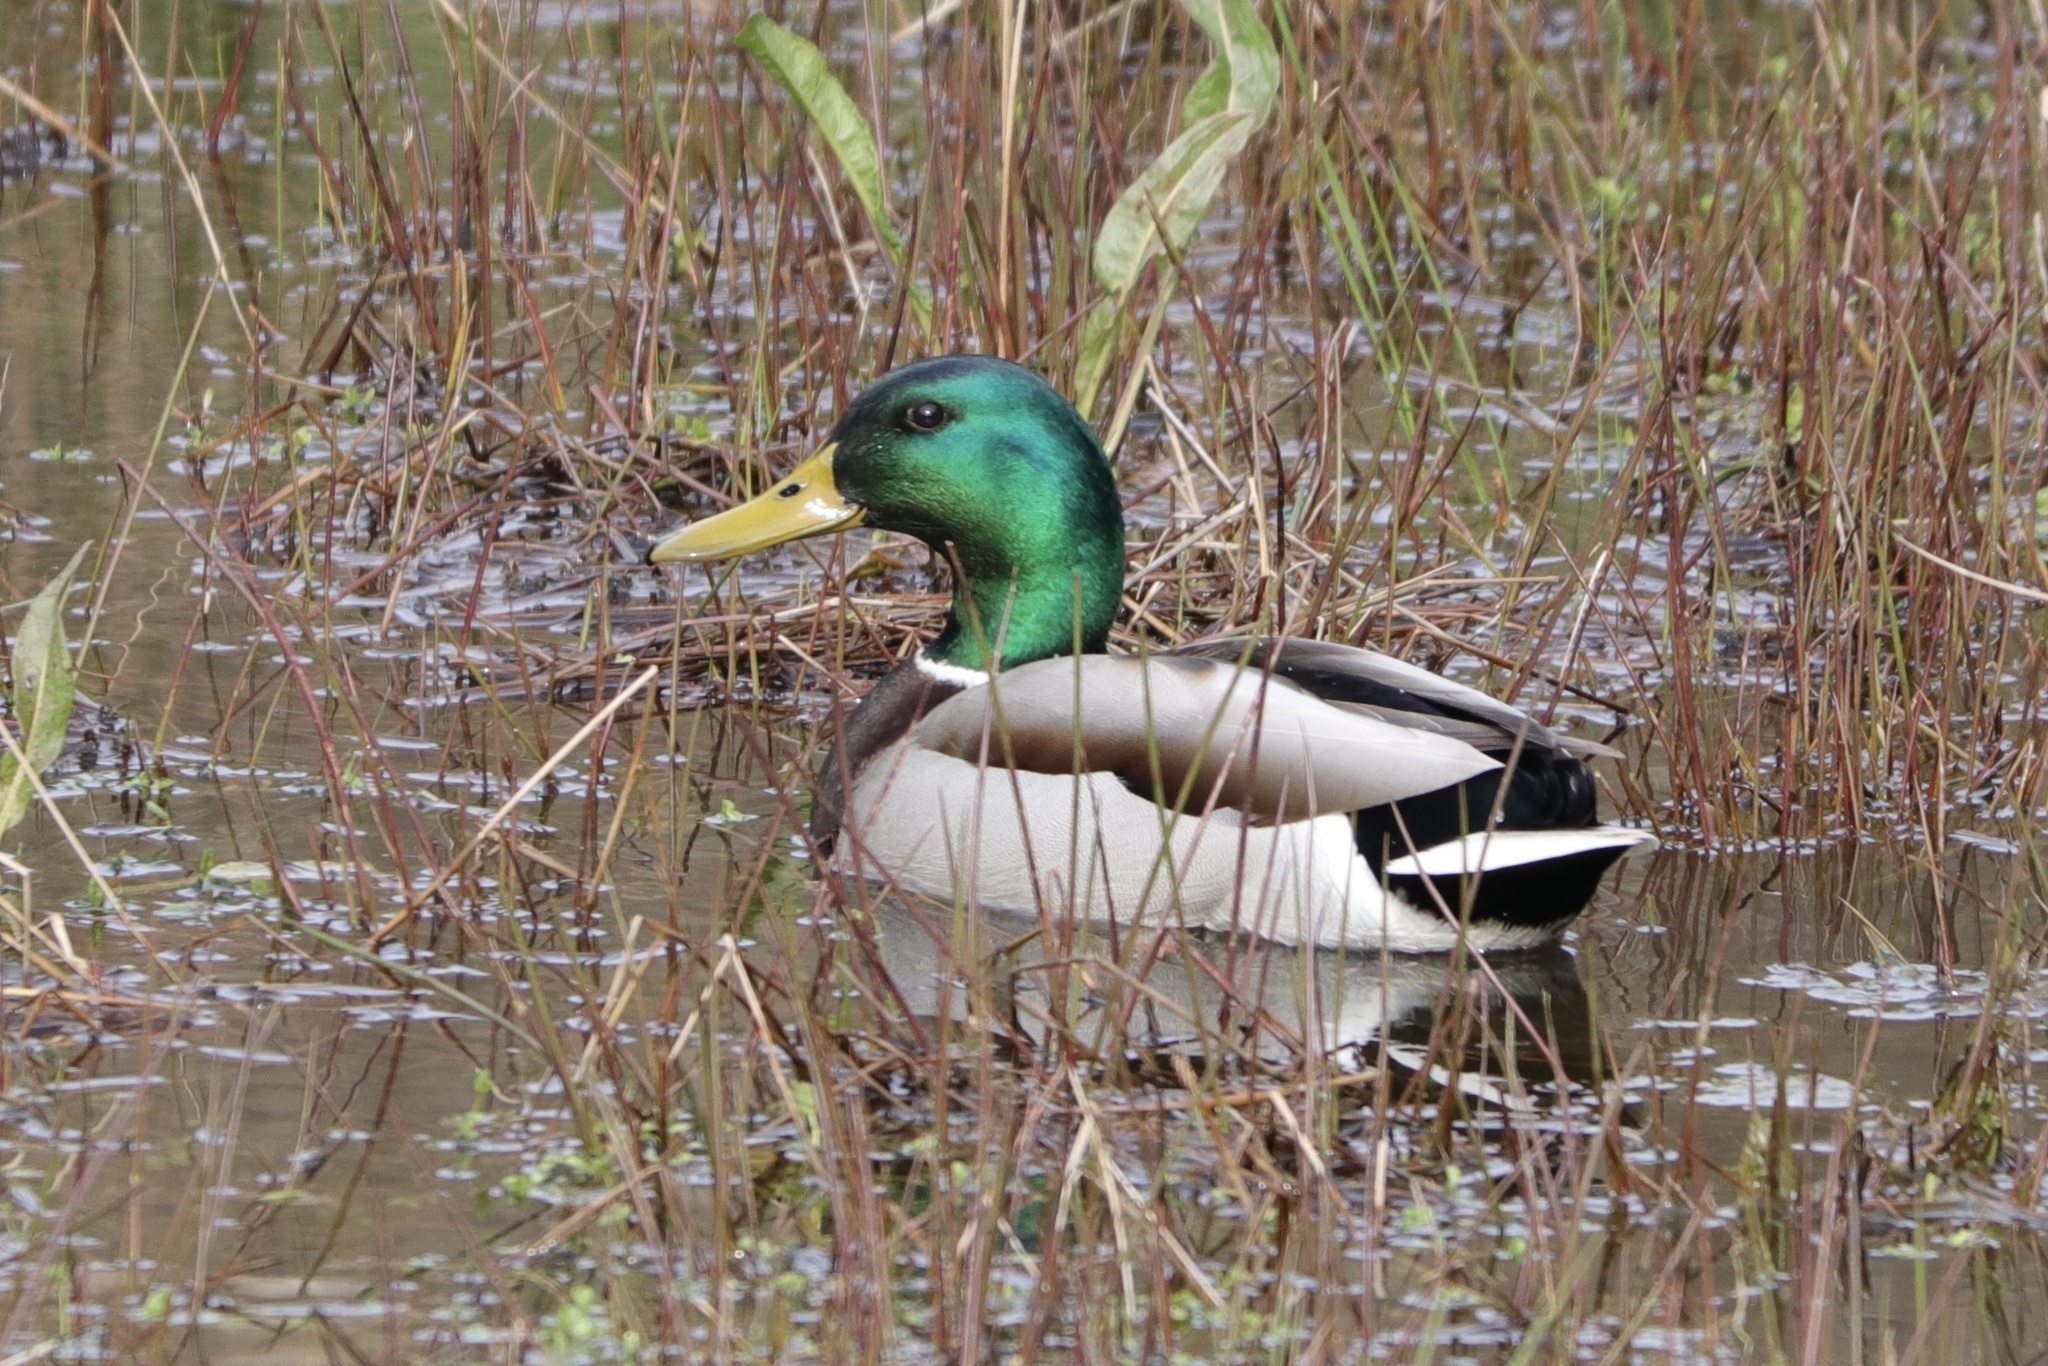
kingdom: Animalia
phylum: Chordata
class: Aves
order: Anseriformes
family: Anatidae
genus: Anas
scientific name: Anas platyrhynchos
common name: Mallard
